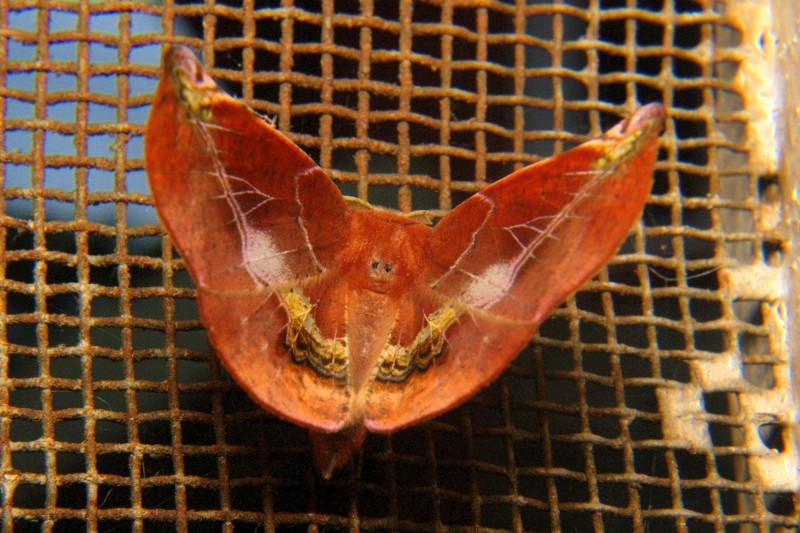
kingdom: Animalia
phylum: Arthropoda
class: Insecta
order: Lepidoptera
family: Geometridae
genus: Garaeus
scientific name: Garaeus conspicienda
